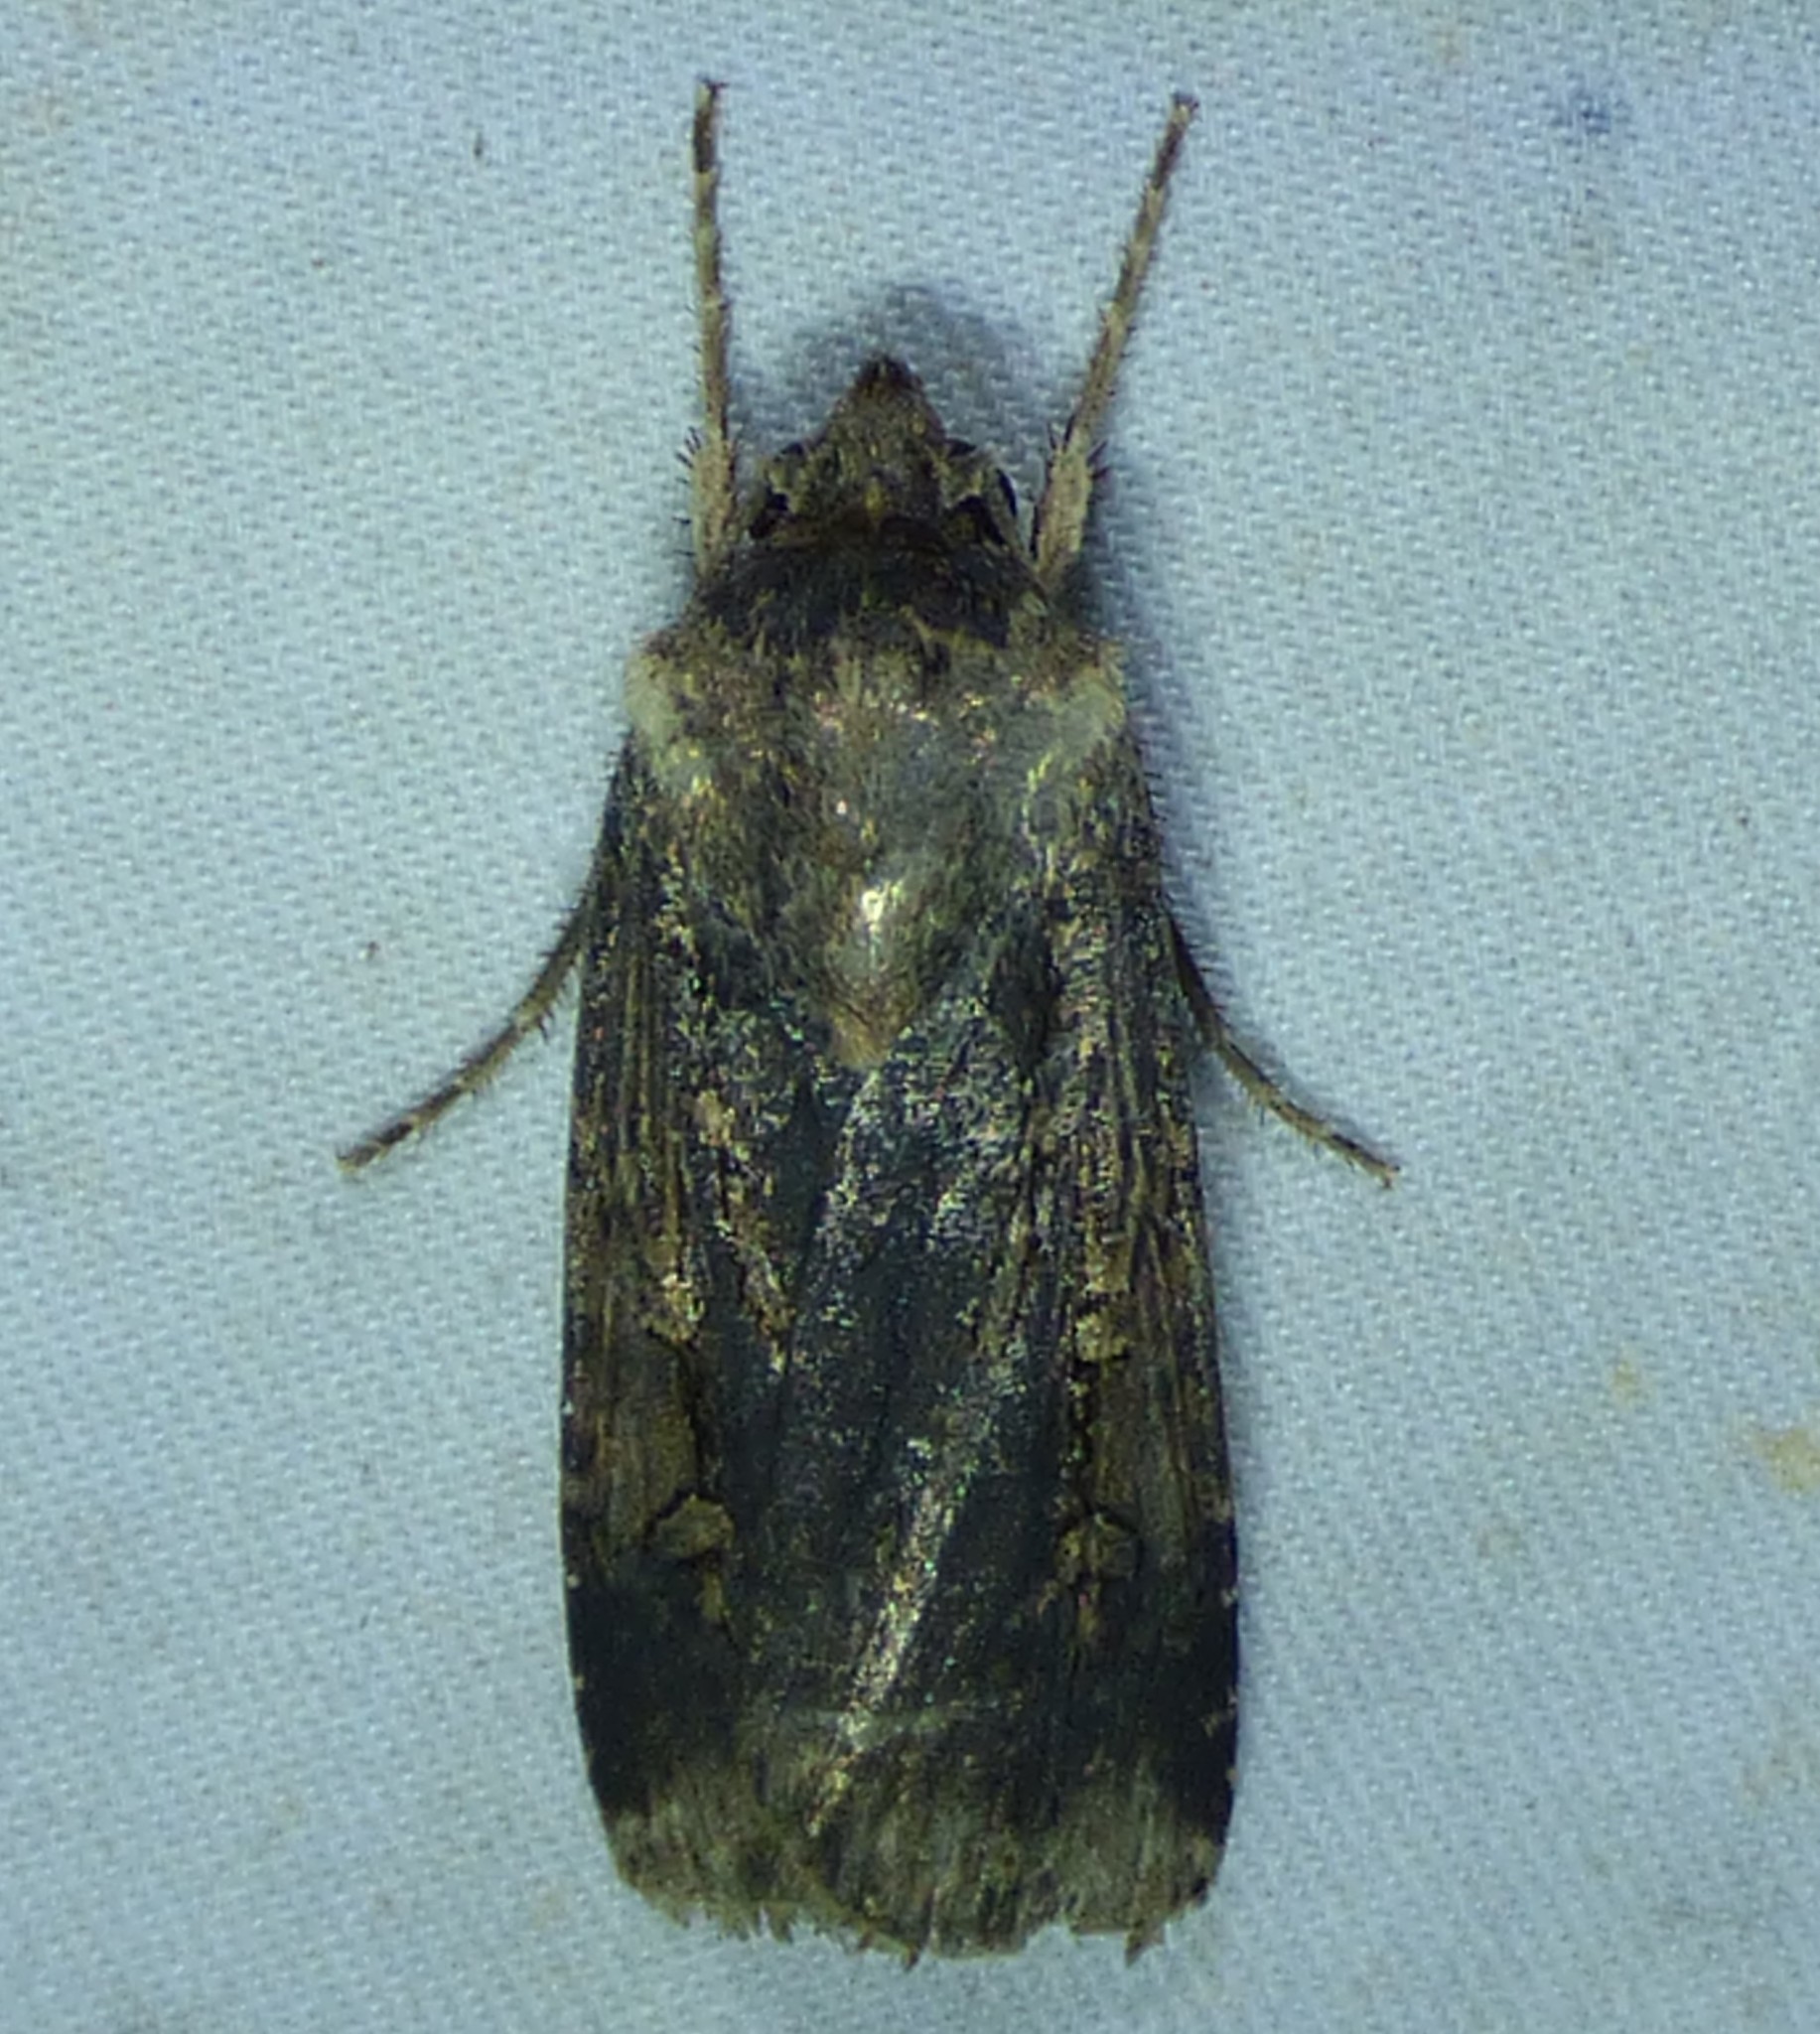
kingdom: Animalia
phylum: Arthropoda
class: Insecta
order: Lepidoptera
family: Noctuidae
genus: Feltia
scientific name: Feltia subterranea
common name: Granulate cutworm
